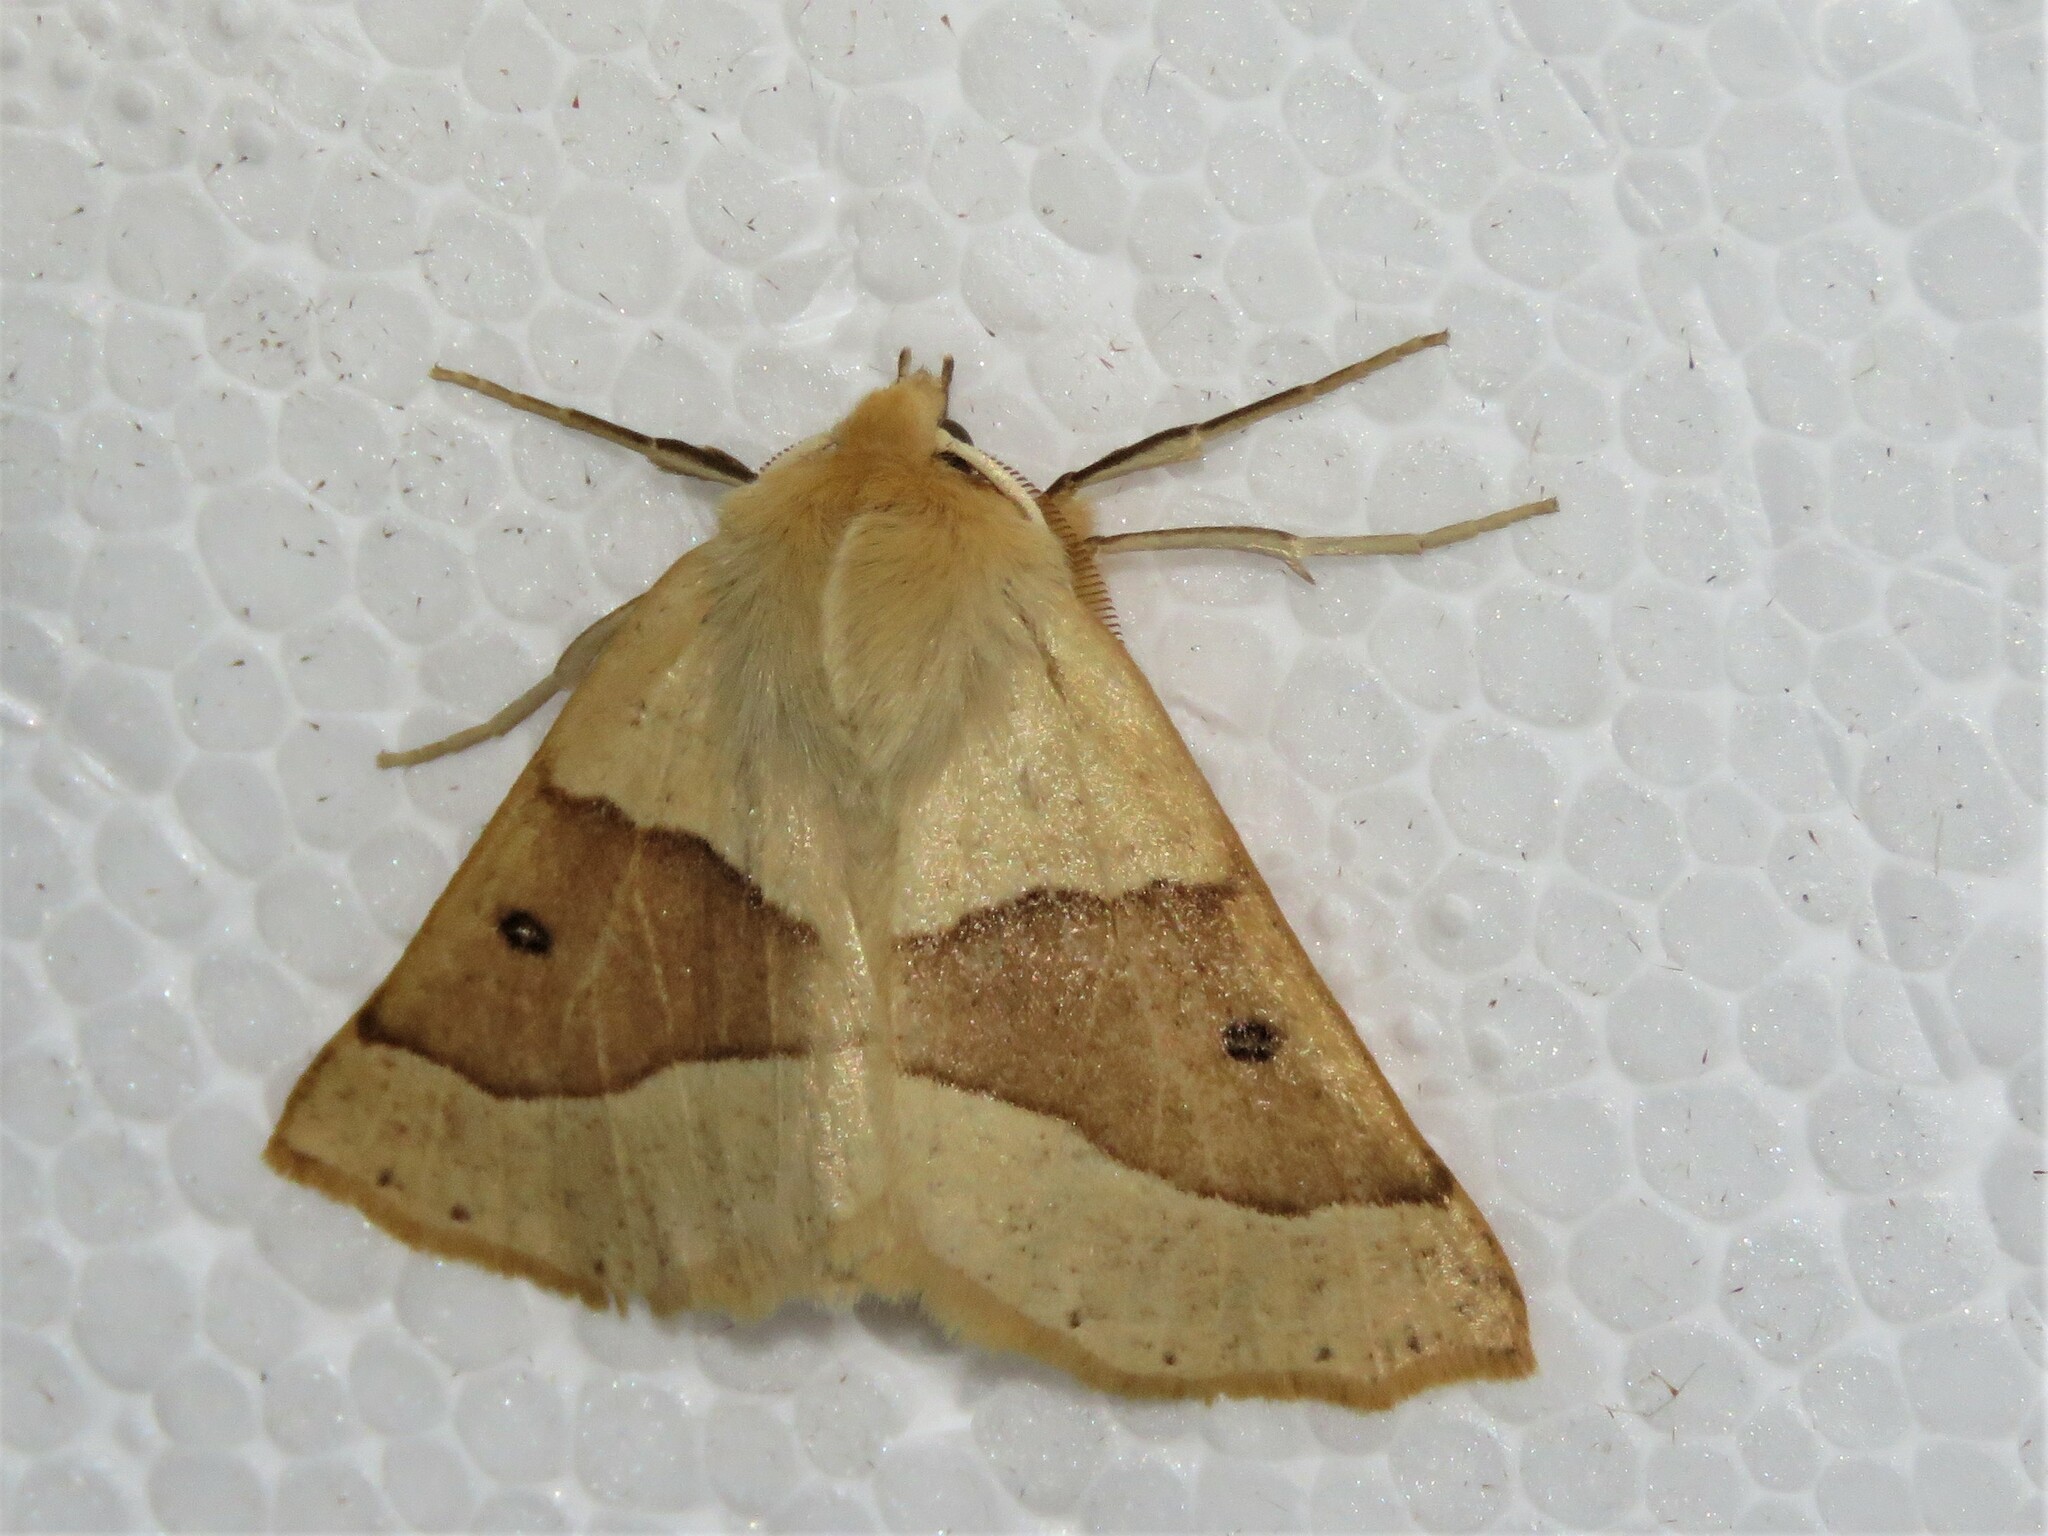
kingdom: Animalia
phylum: Arthropoda
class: Insecta
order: Lepidoptera
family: Geometridae
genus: Crocallis
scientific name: Crocallis elinguaria
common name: Scalloped oak
